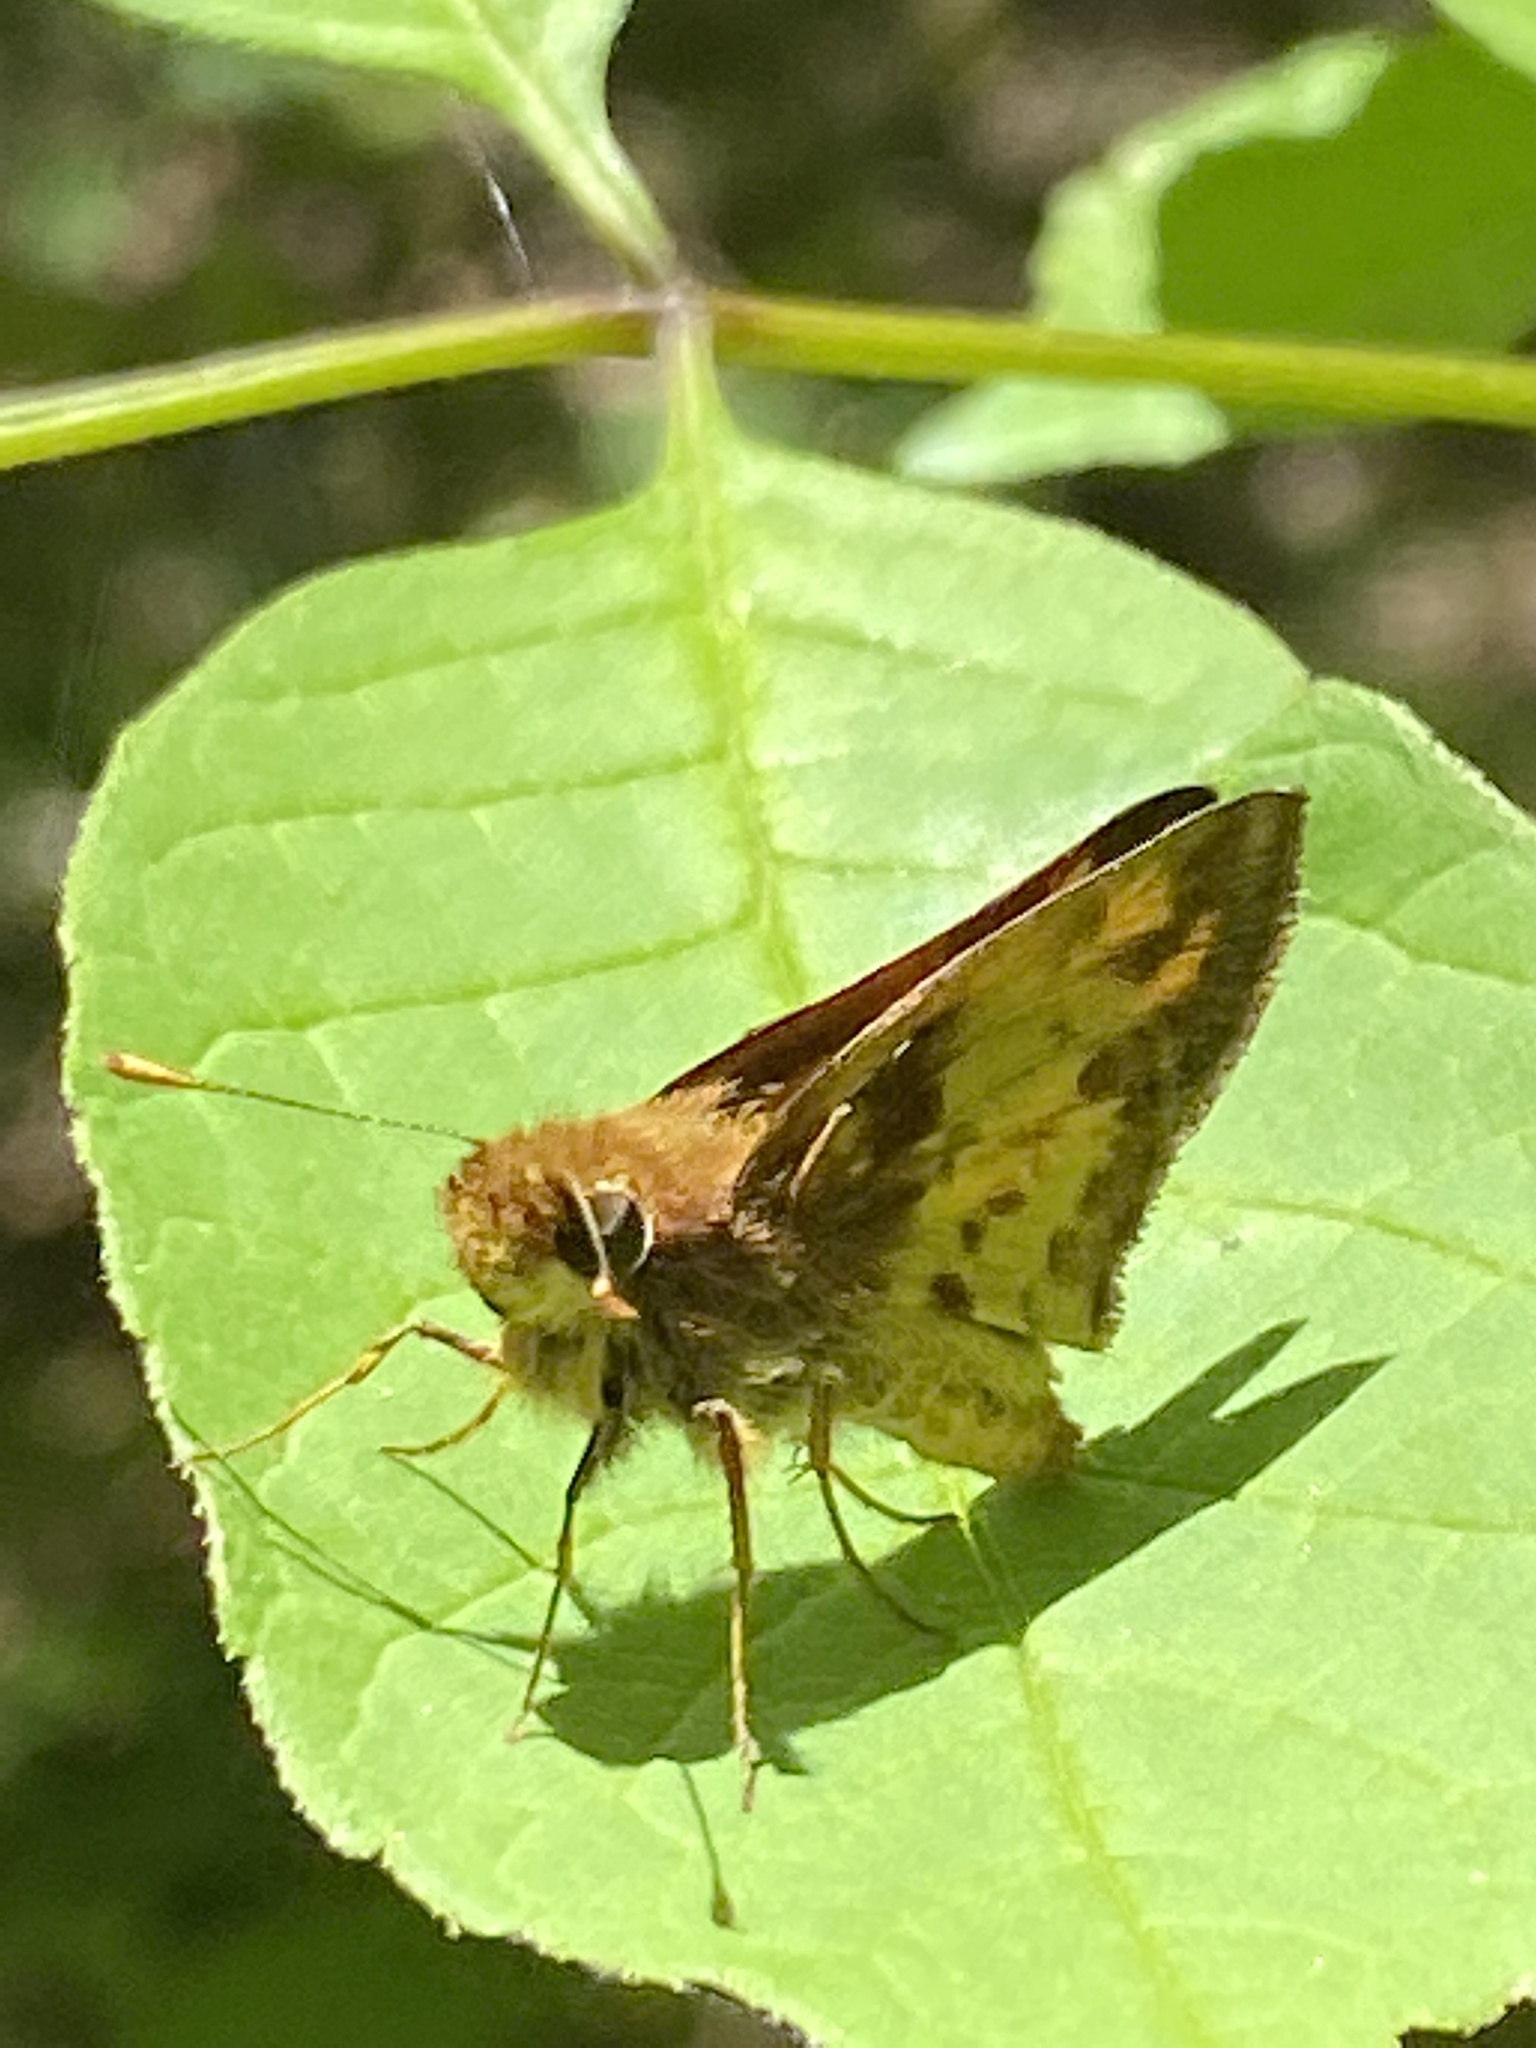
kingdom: Animalia
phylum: Arthropoda
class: Insecta
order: Lepidoptera
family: Hesperiidae
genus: Lon
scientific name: Lon zabulon
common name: Zabulon skipper
